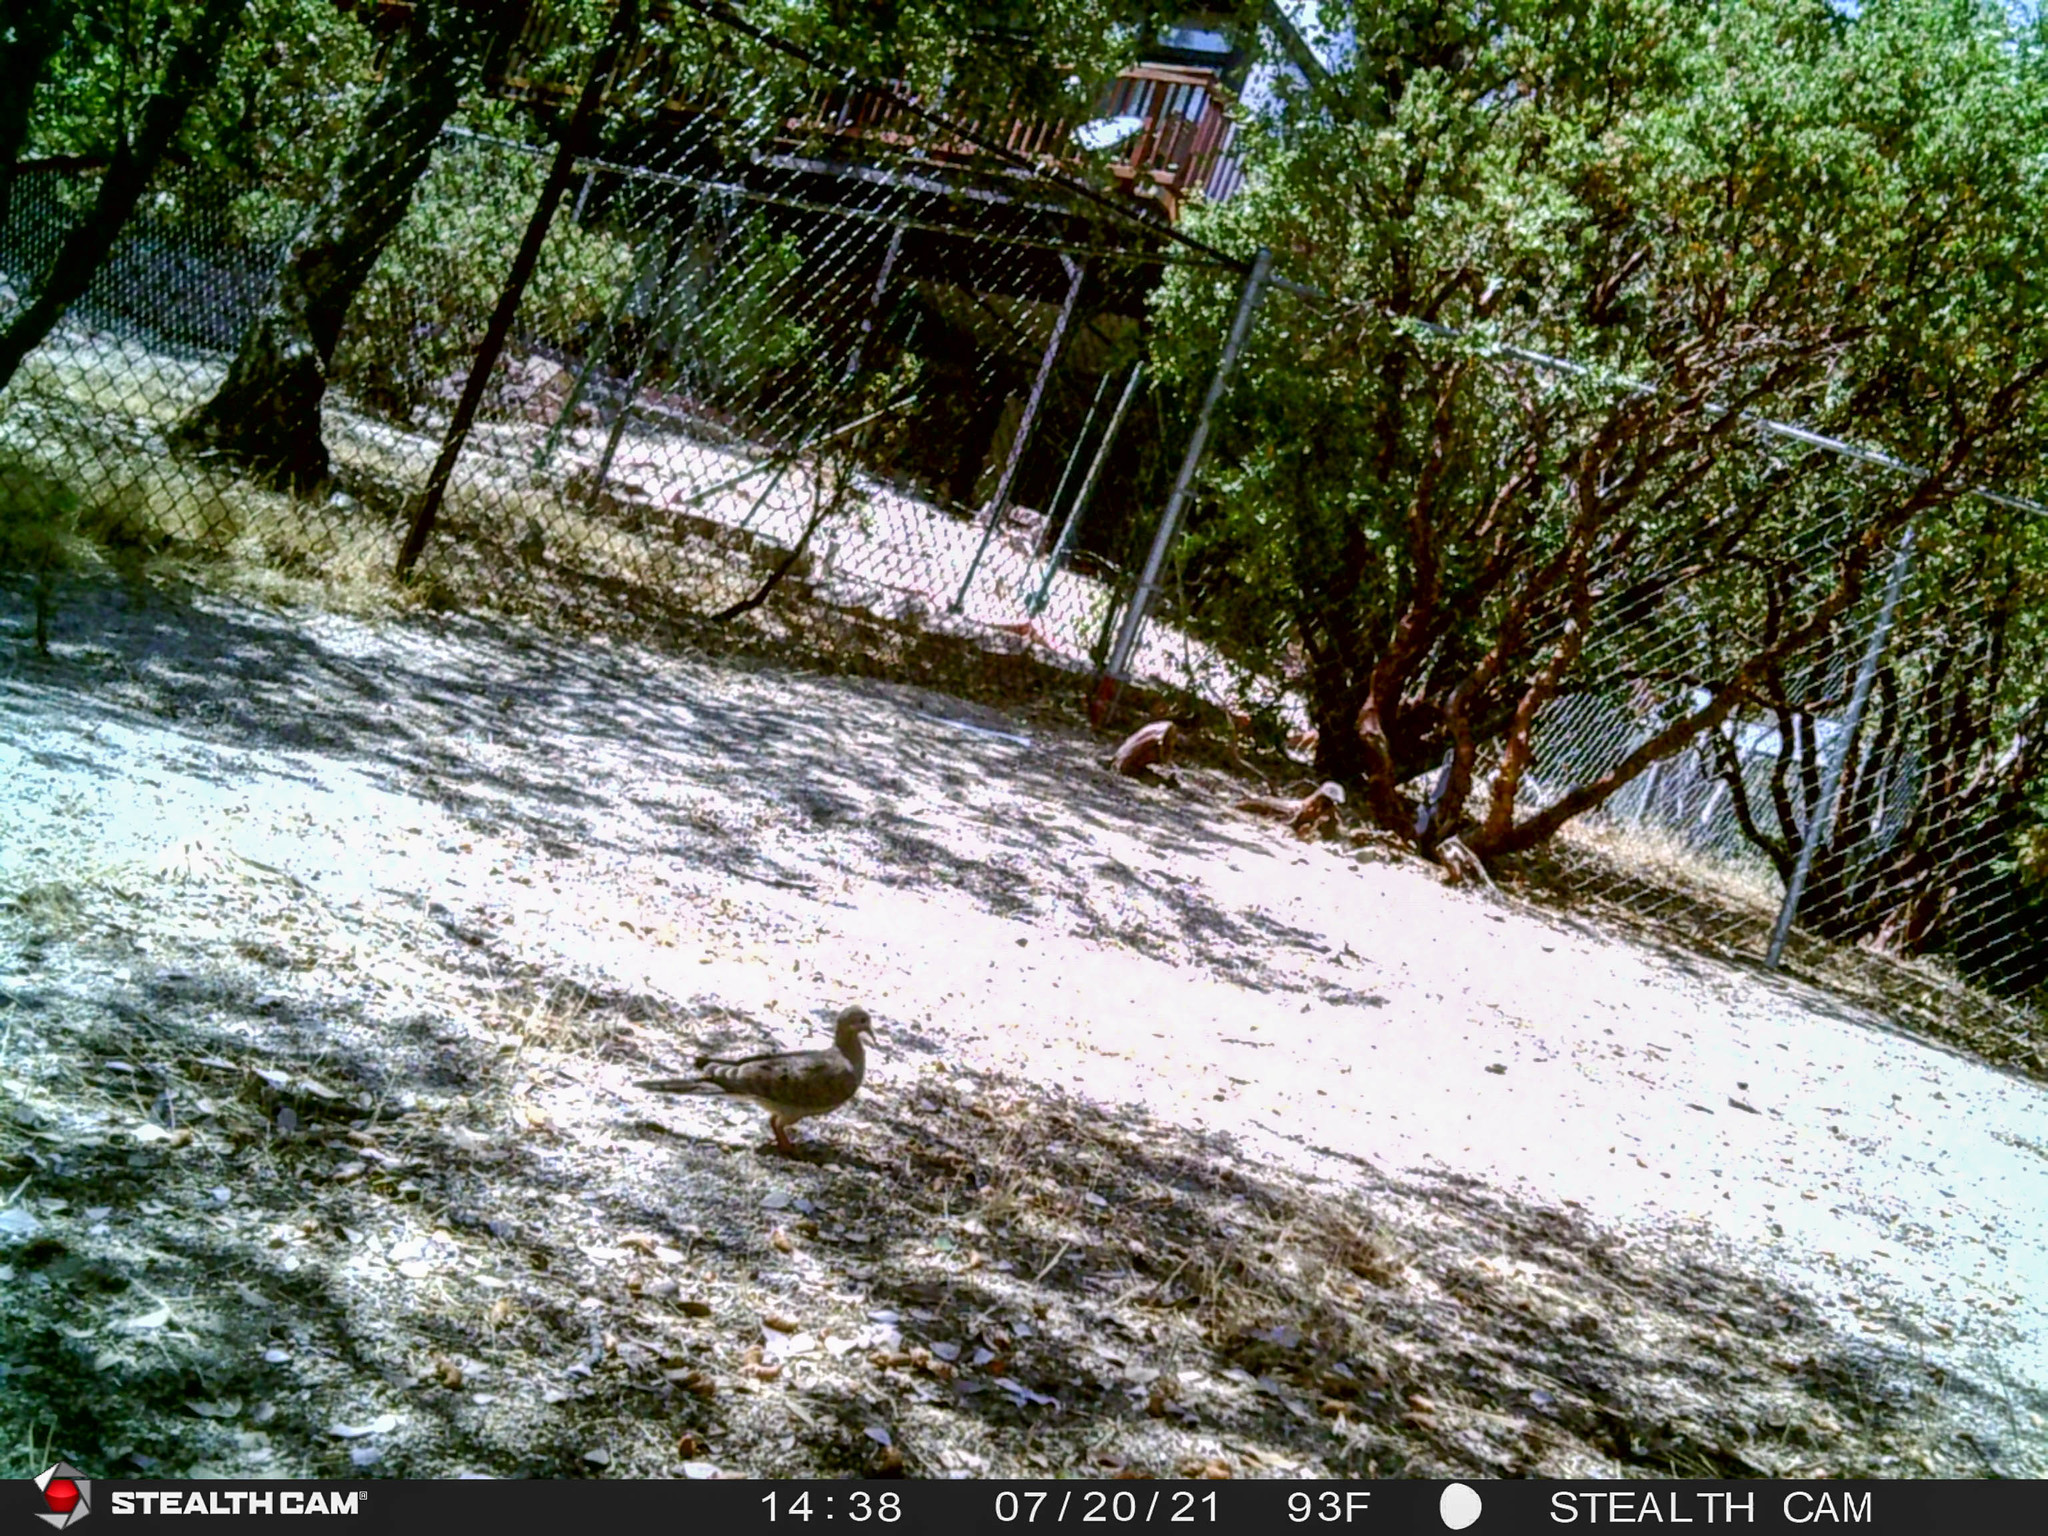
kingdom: Animalia
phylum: Chordata
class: Aves
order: Columbiformes
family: Columbidae
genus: Zenaida
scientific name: Zenaida macroura
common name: Mourning dove
